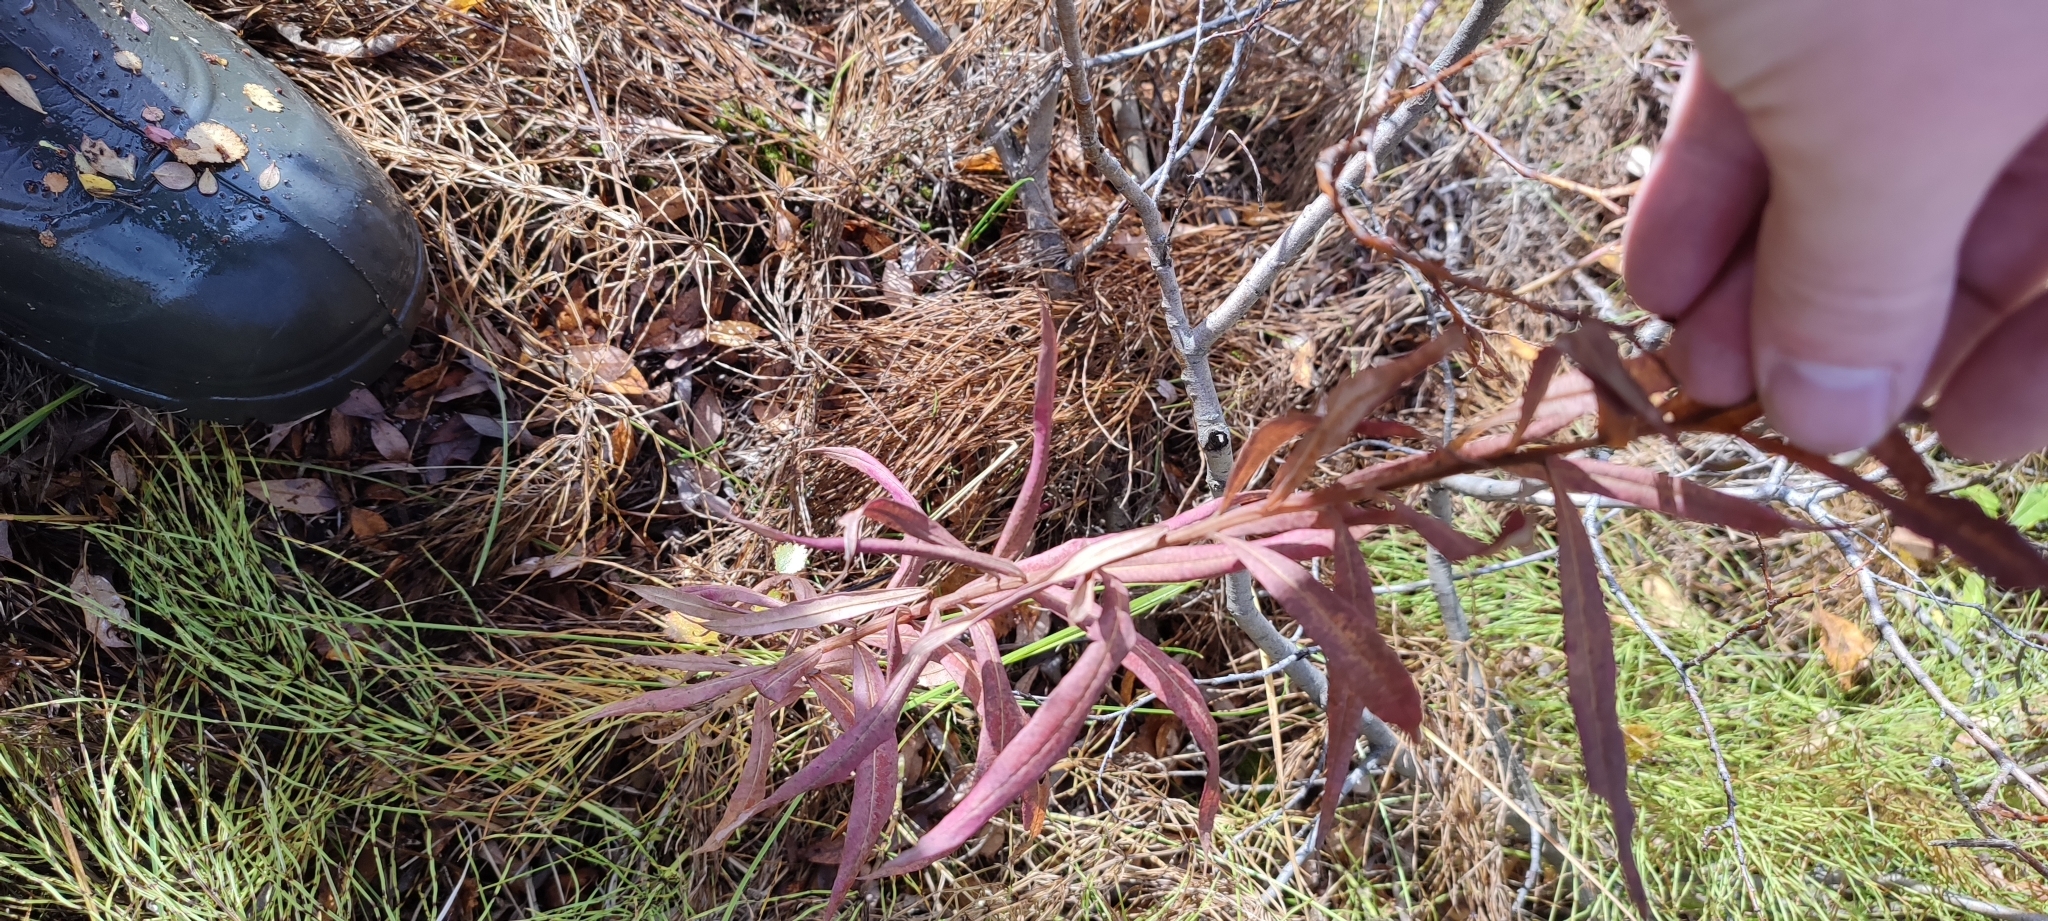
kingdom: Plantae
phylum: Tracheophyta
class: Magnoliopsida
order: Myrtales
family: Onagraceae
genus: Chamaenerion
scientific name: Chamaenerion angustifolium
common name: Fireweed
